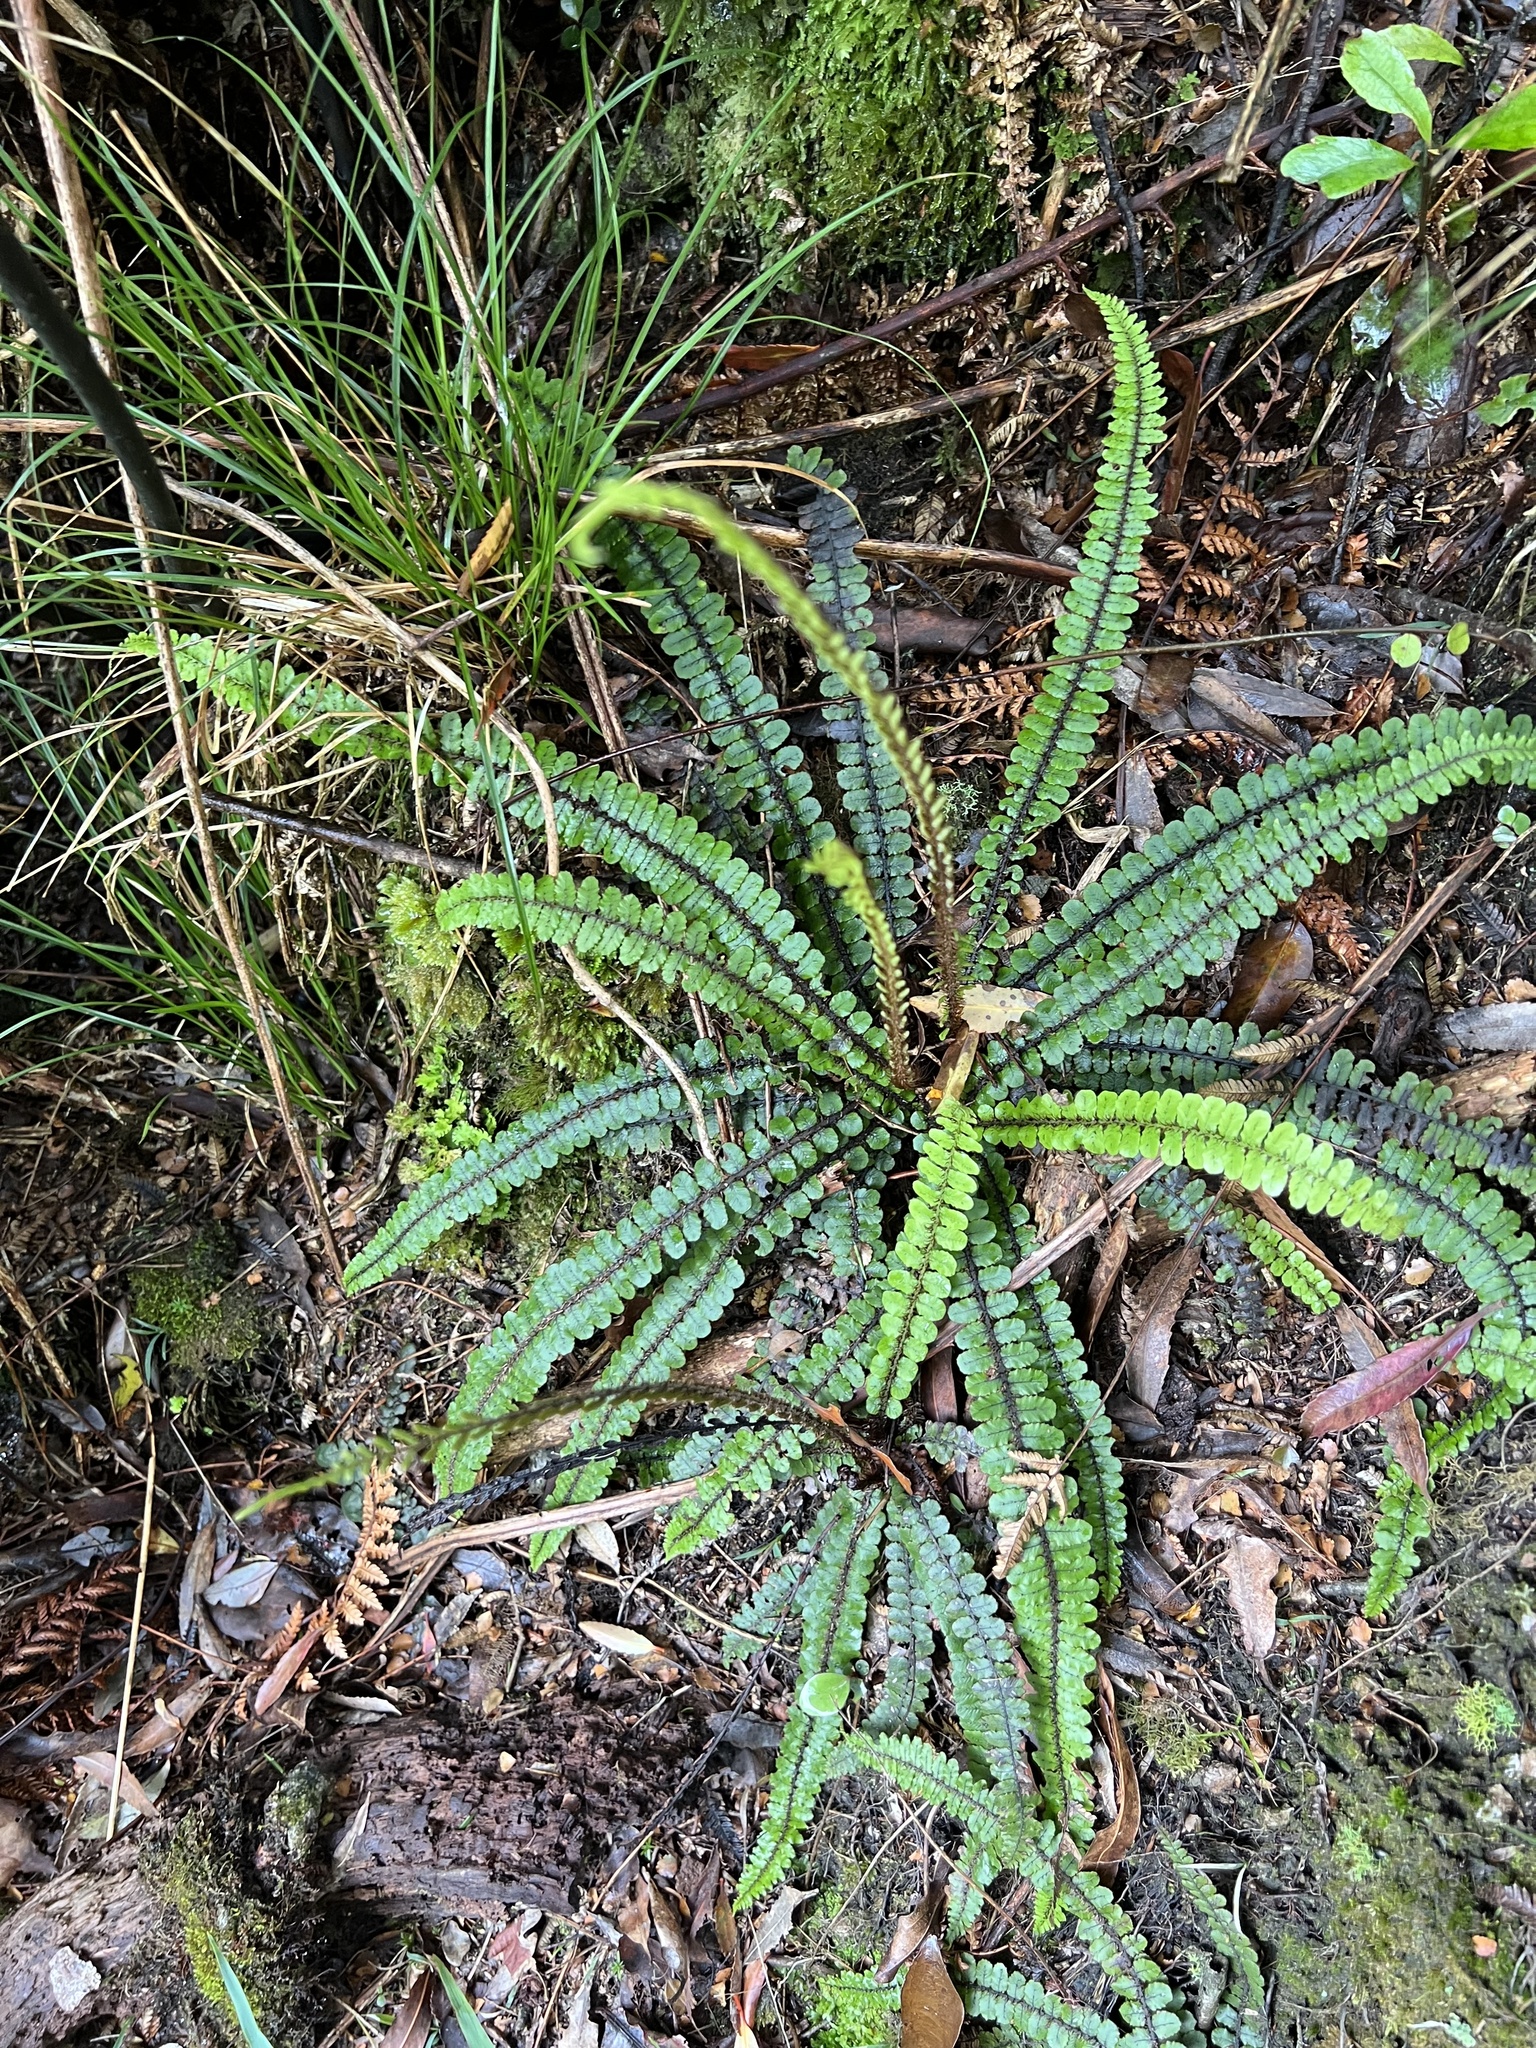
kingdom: Plantae
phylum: Tracheophyta
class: Polypodiopsida
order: Polypodiales
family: Blechnaceae
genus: Cranfillia
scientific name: Cranfillia fluviatilis
